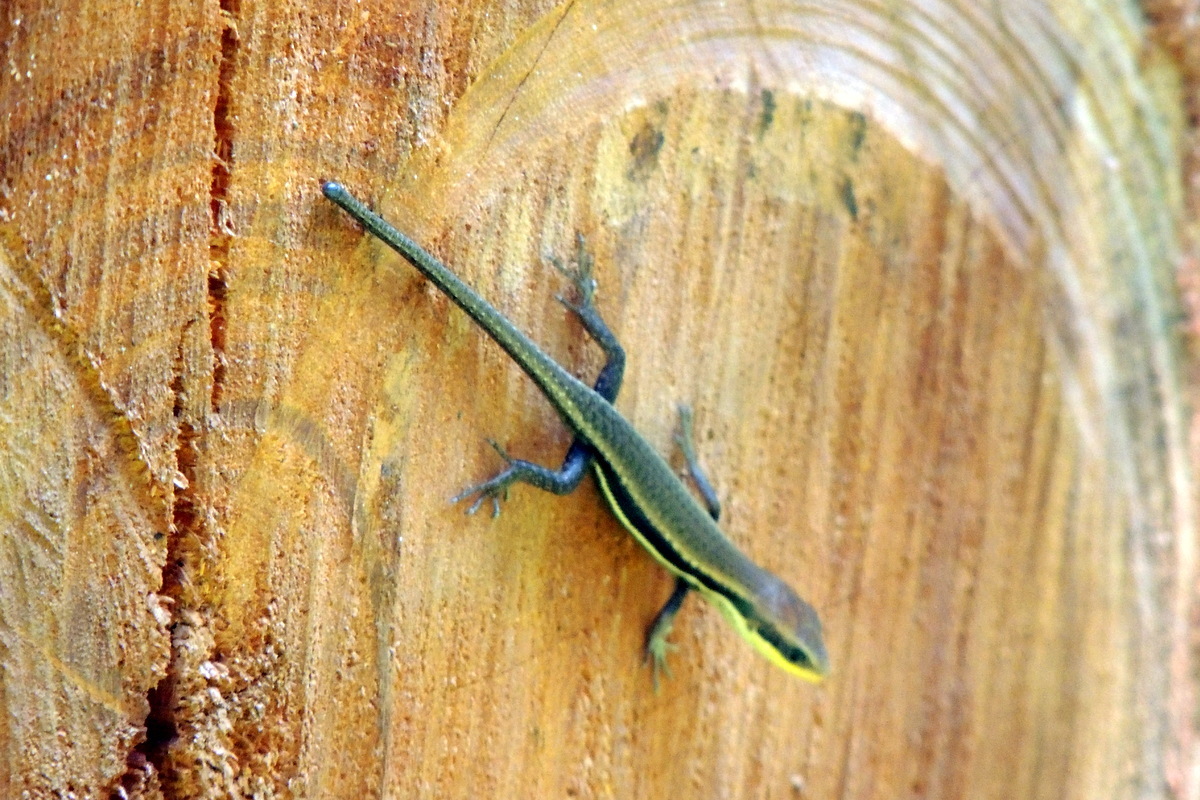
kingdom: Animalia
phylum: Chordata
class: Squamata
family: Scincidae
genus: Trachylepis
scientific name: Trachylepis
